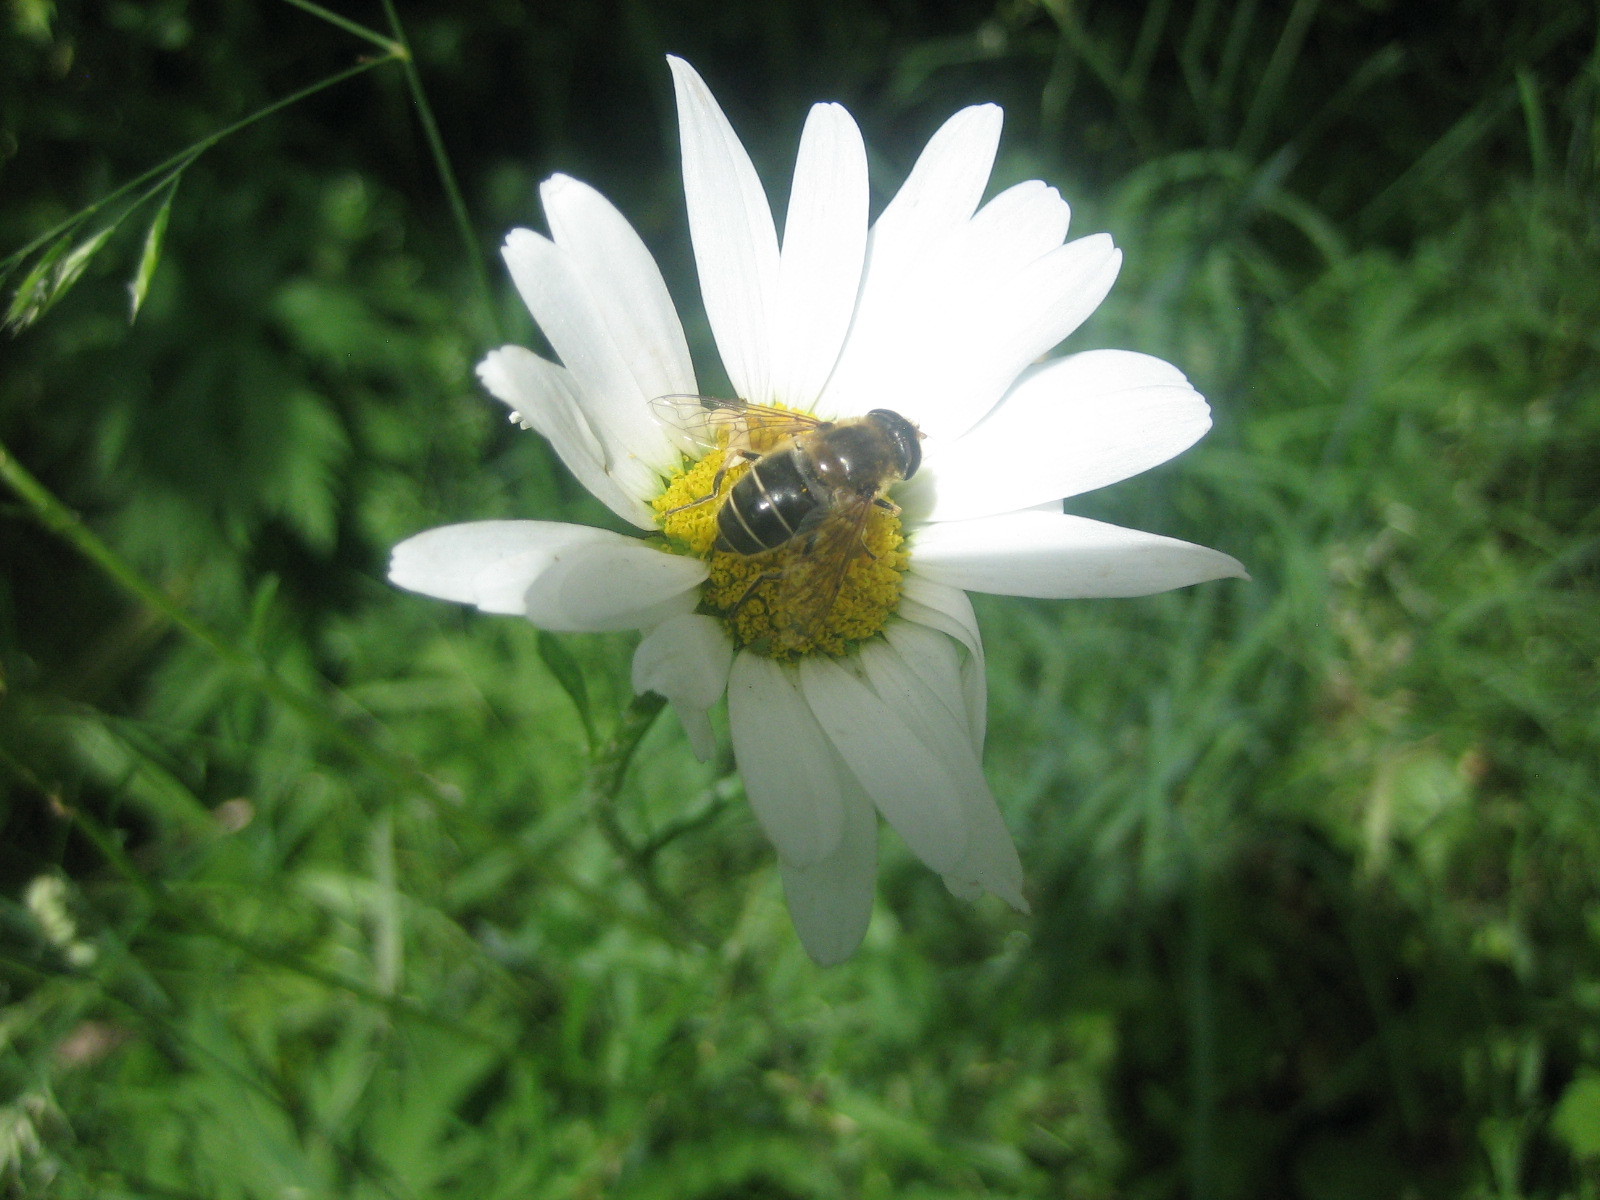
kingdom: Animalia
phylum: Arthropoda
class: Insecta
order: Diptera
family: Syrphidae
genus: Eristalis
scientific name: Eristalis
